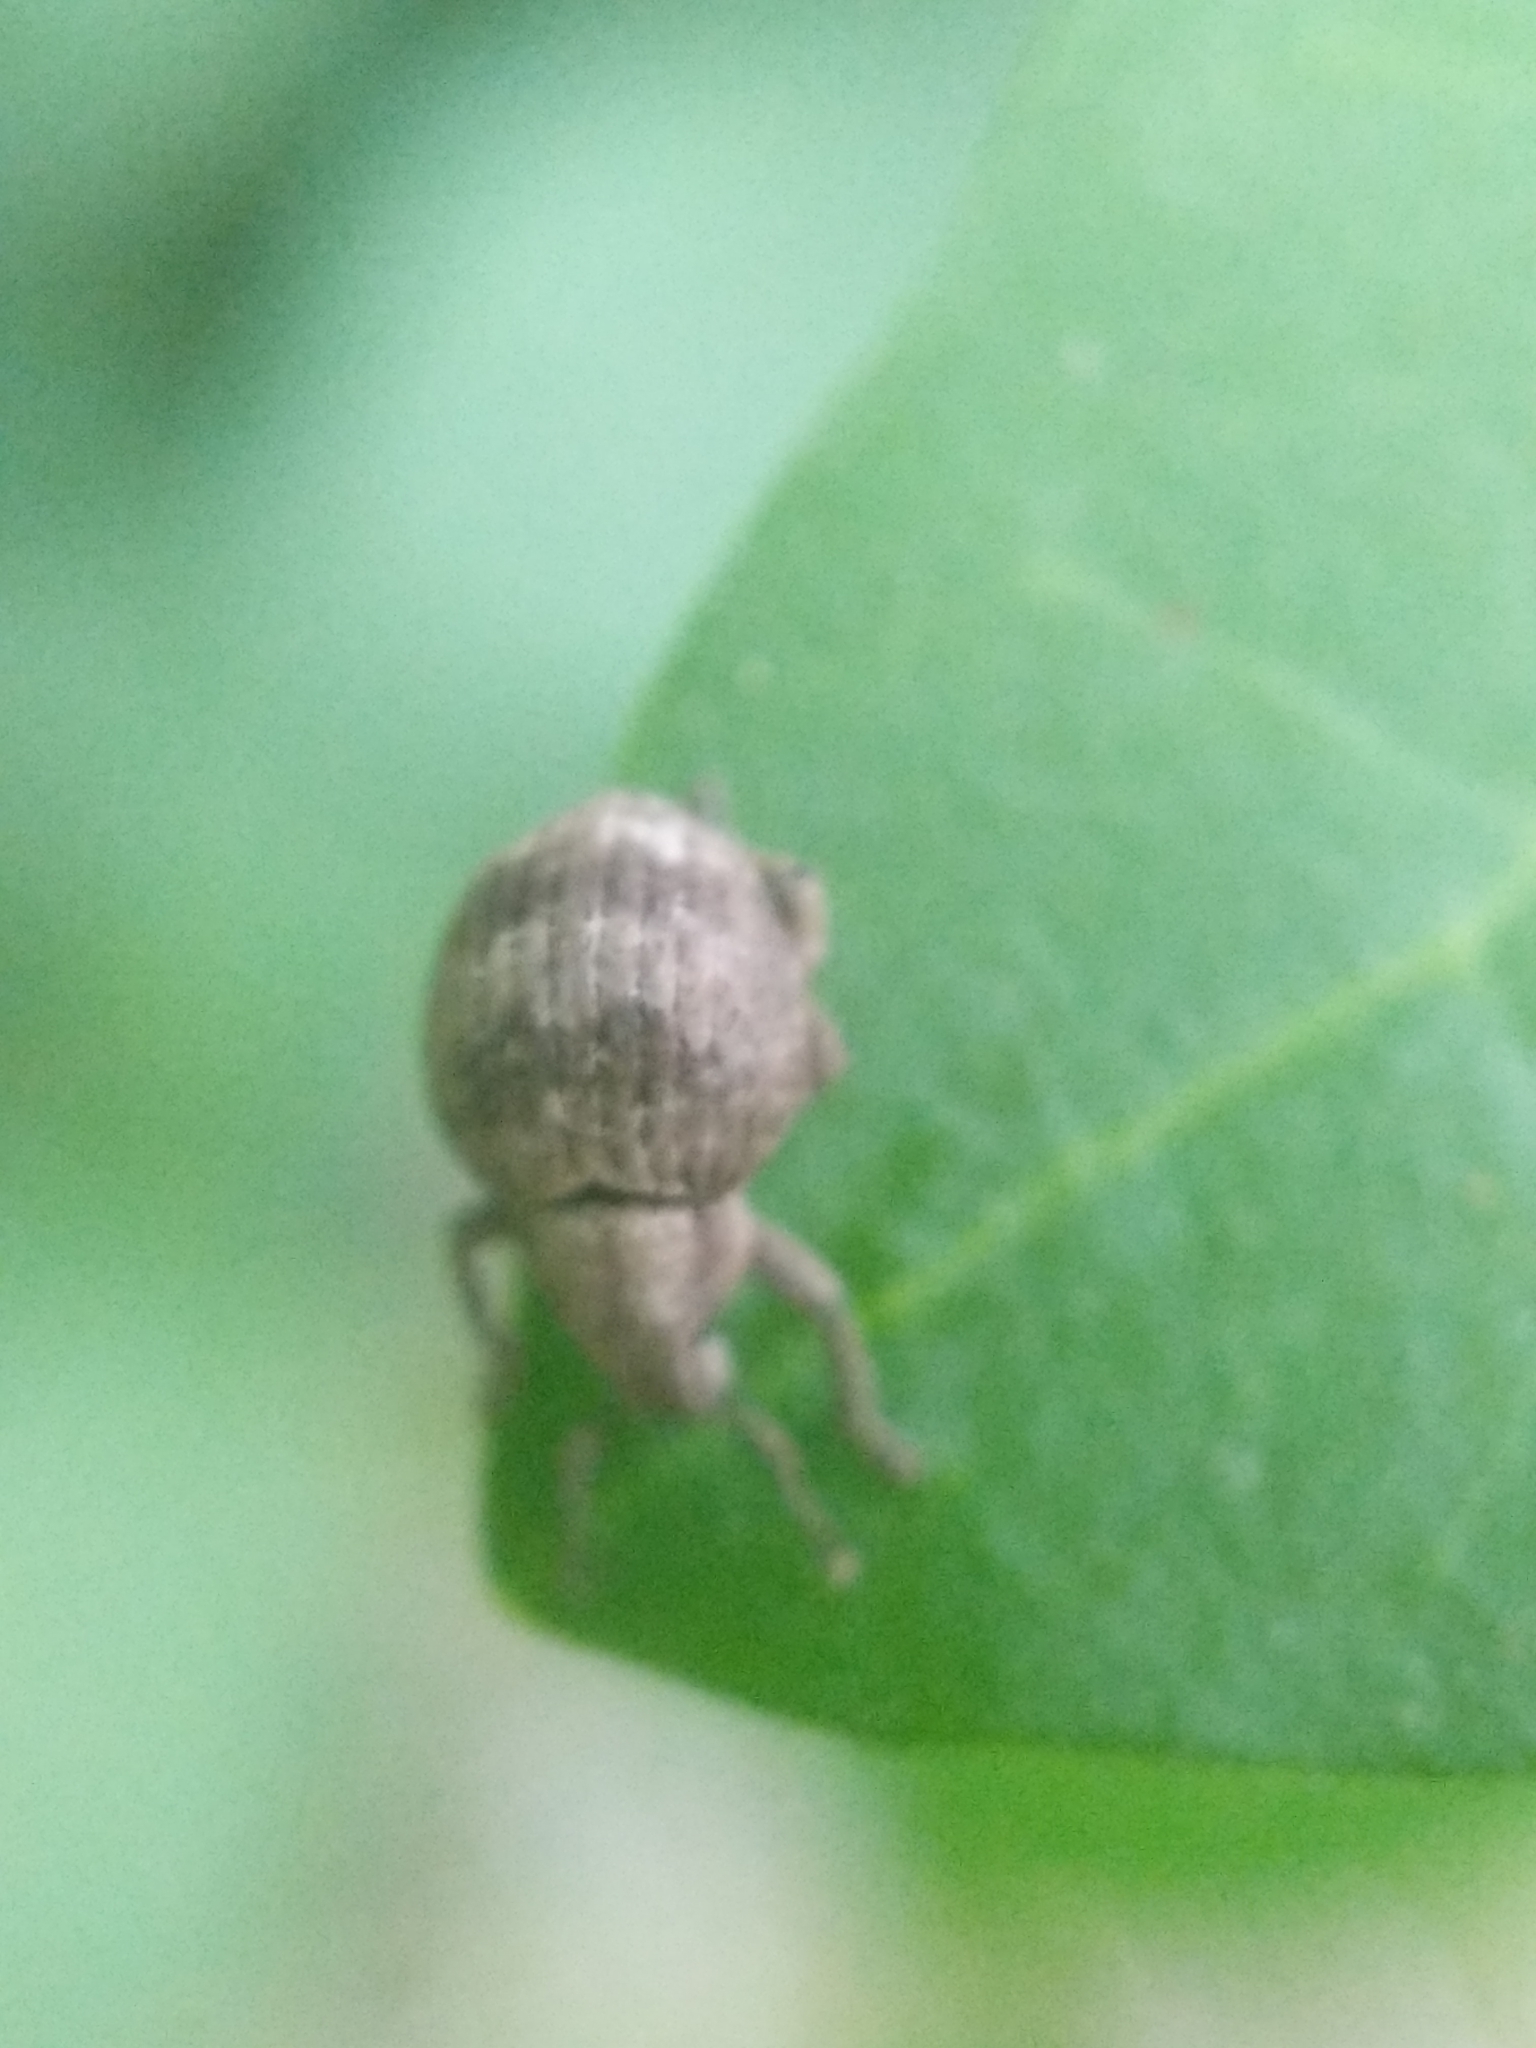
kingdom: Animalia
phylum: Arthropoda
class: Insecta
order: Coleoptera
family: Curculionidae
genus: Pseudocneorhinus
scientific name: Pseudocneorhinus bifasciatus
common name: Two-banded japanese weevil
